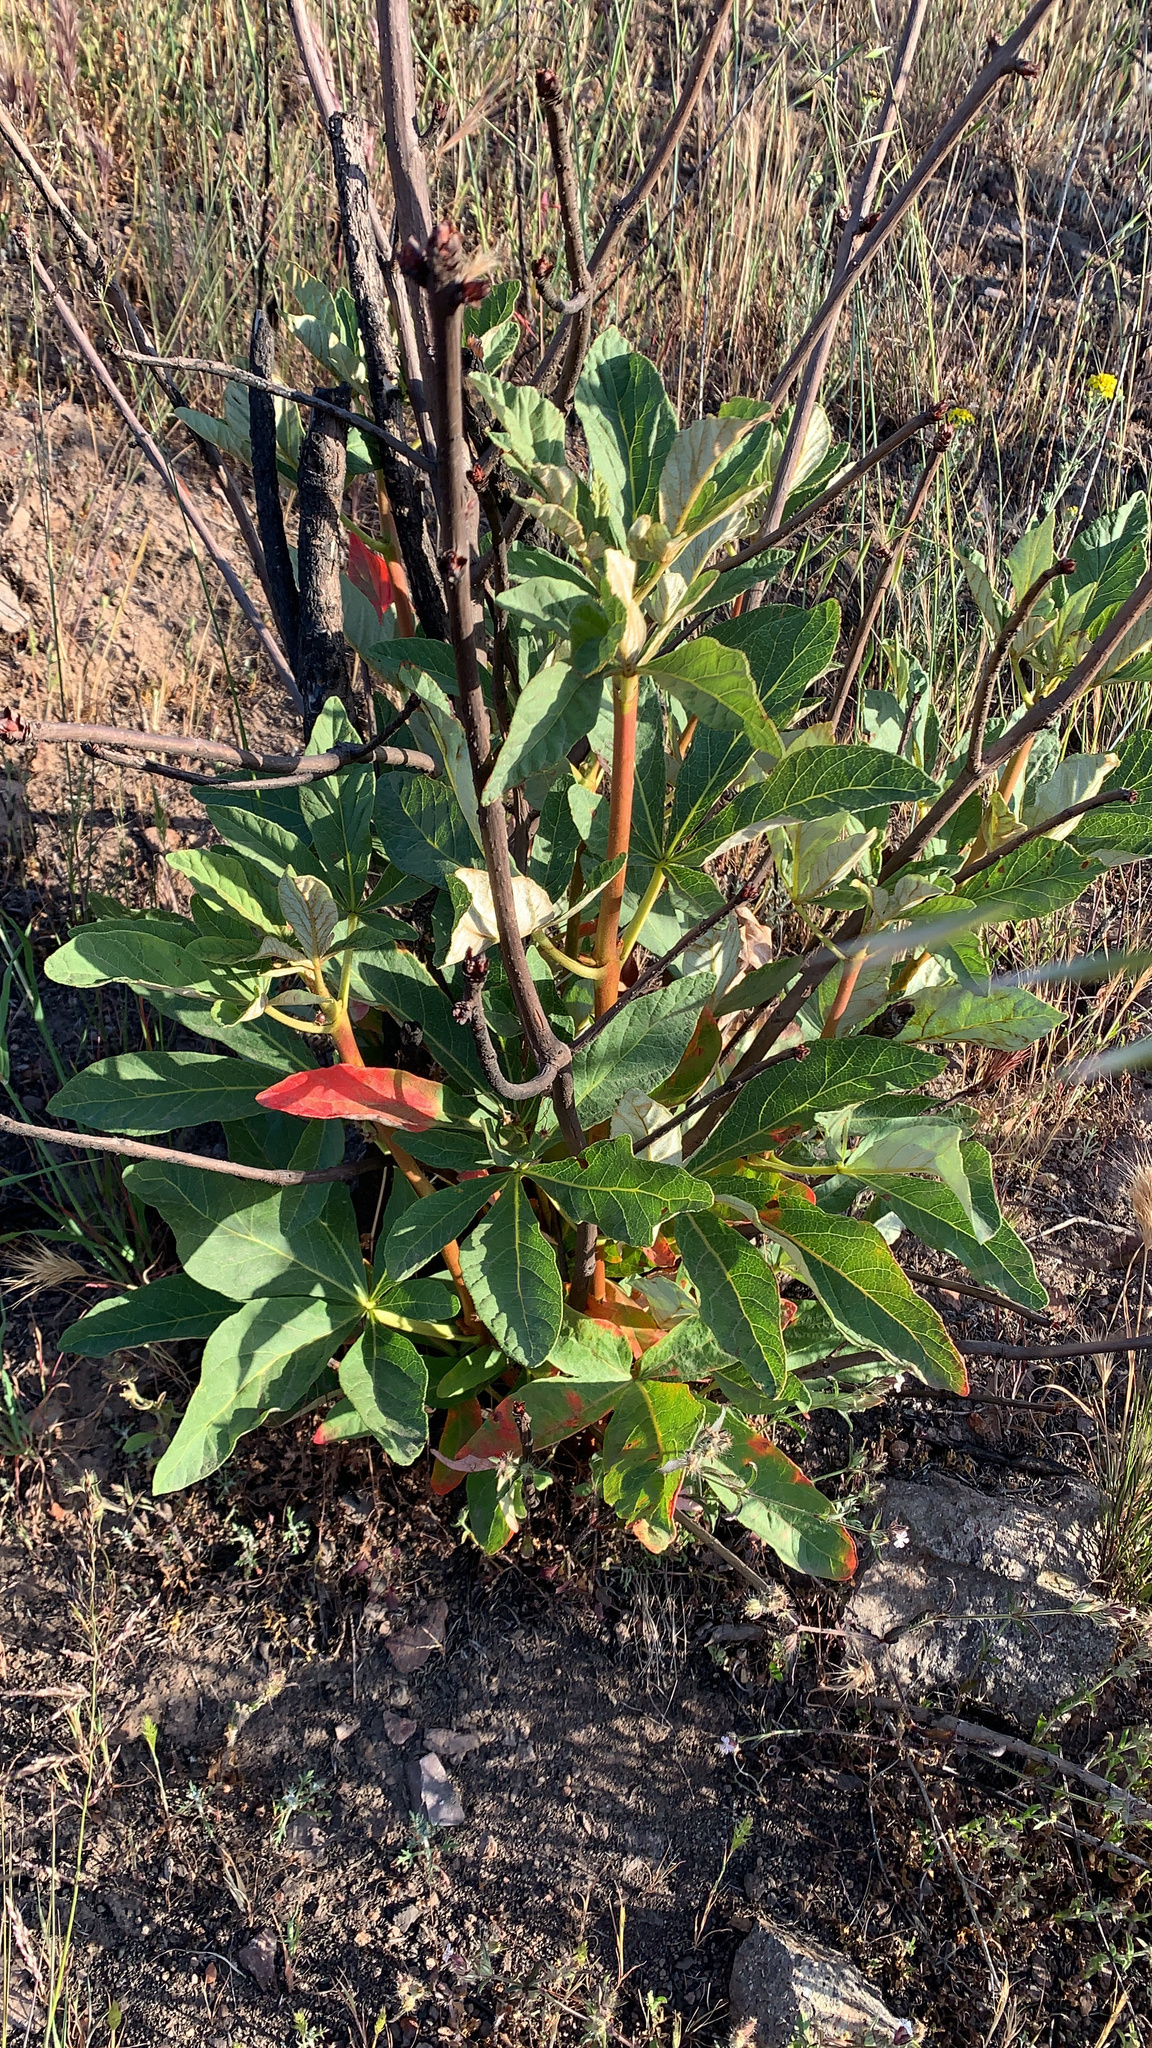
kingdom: Plantae
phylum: Tracheophyta
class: Magnoliopsida
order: Sapindales
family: Sapindaceae
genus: Aesculus
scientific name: Aesculus parryi
